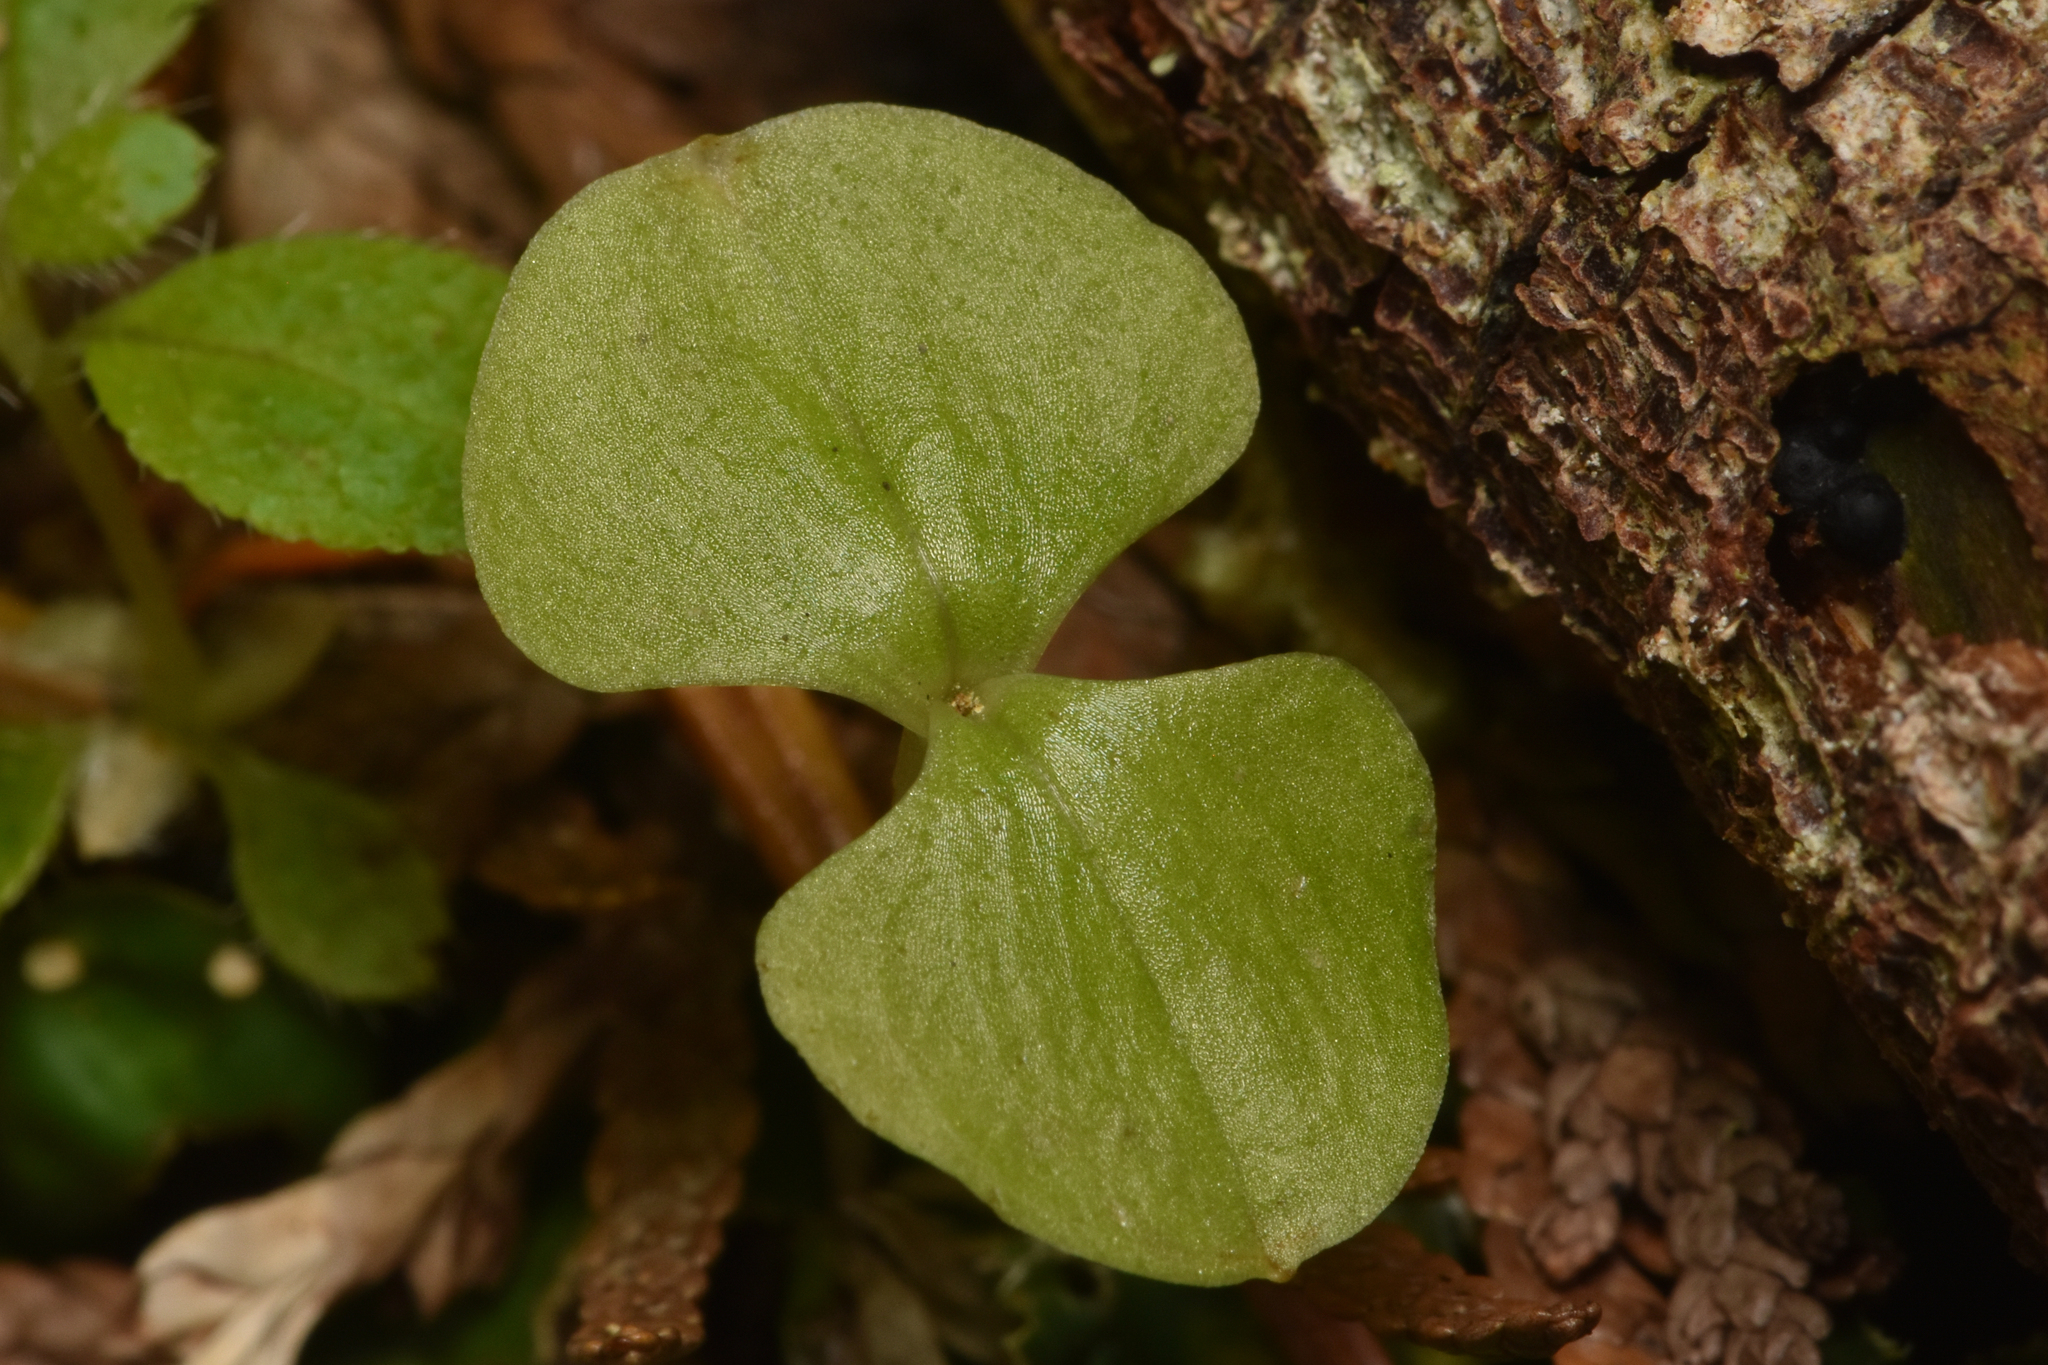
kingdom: Plantae
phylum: Tracheophyta
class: Liliopsida
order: Asparagales
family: Orchidaceae
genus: Neottia
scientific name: Neottia cordata
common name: Lesser twayblade
